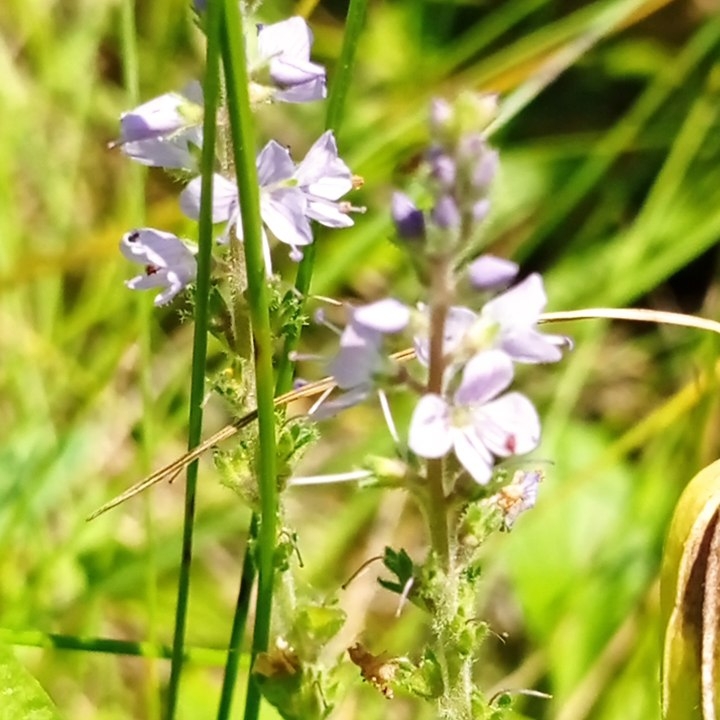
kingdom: Plantae
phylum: Tracheophyta
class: Magnoliopsida
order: Lamiales
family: Plantaginaceae
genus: Veronica
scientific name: Veronica officinalis
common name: Common speedwell
